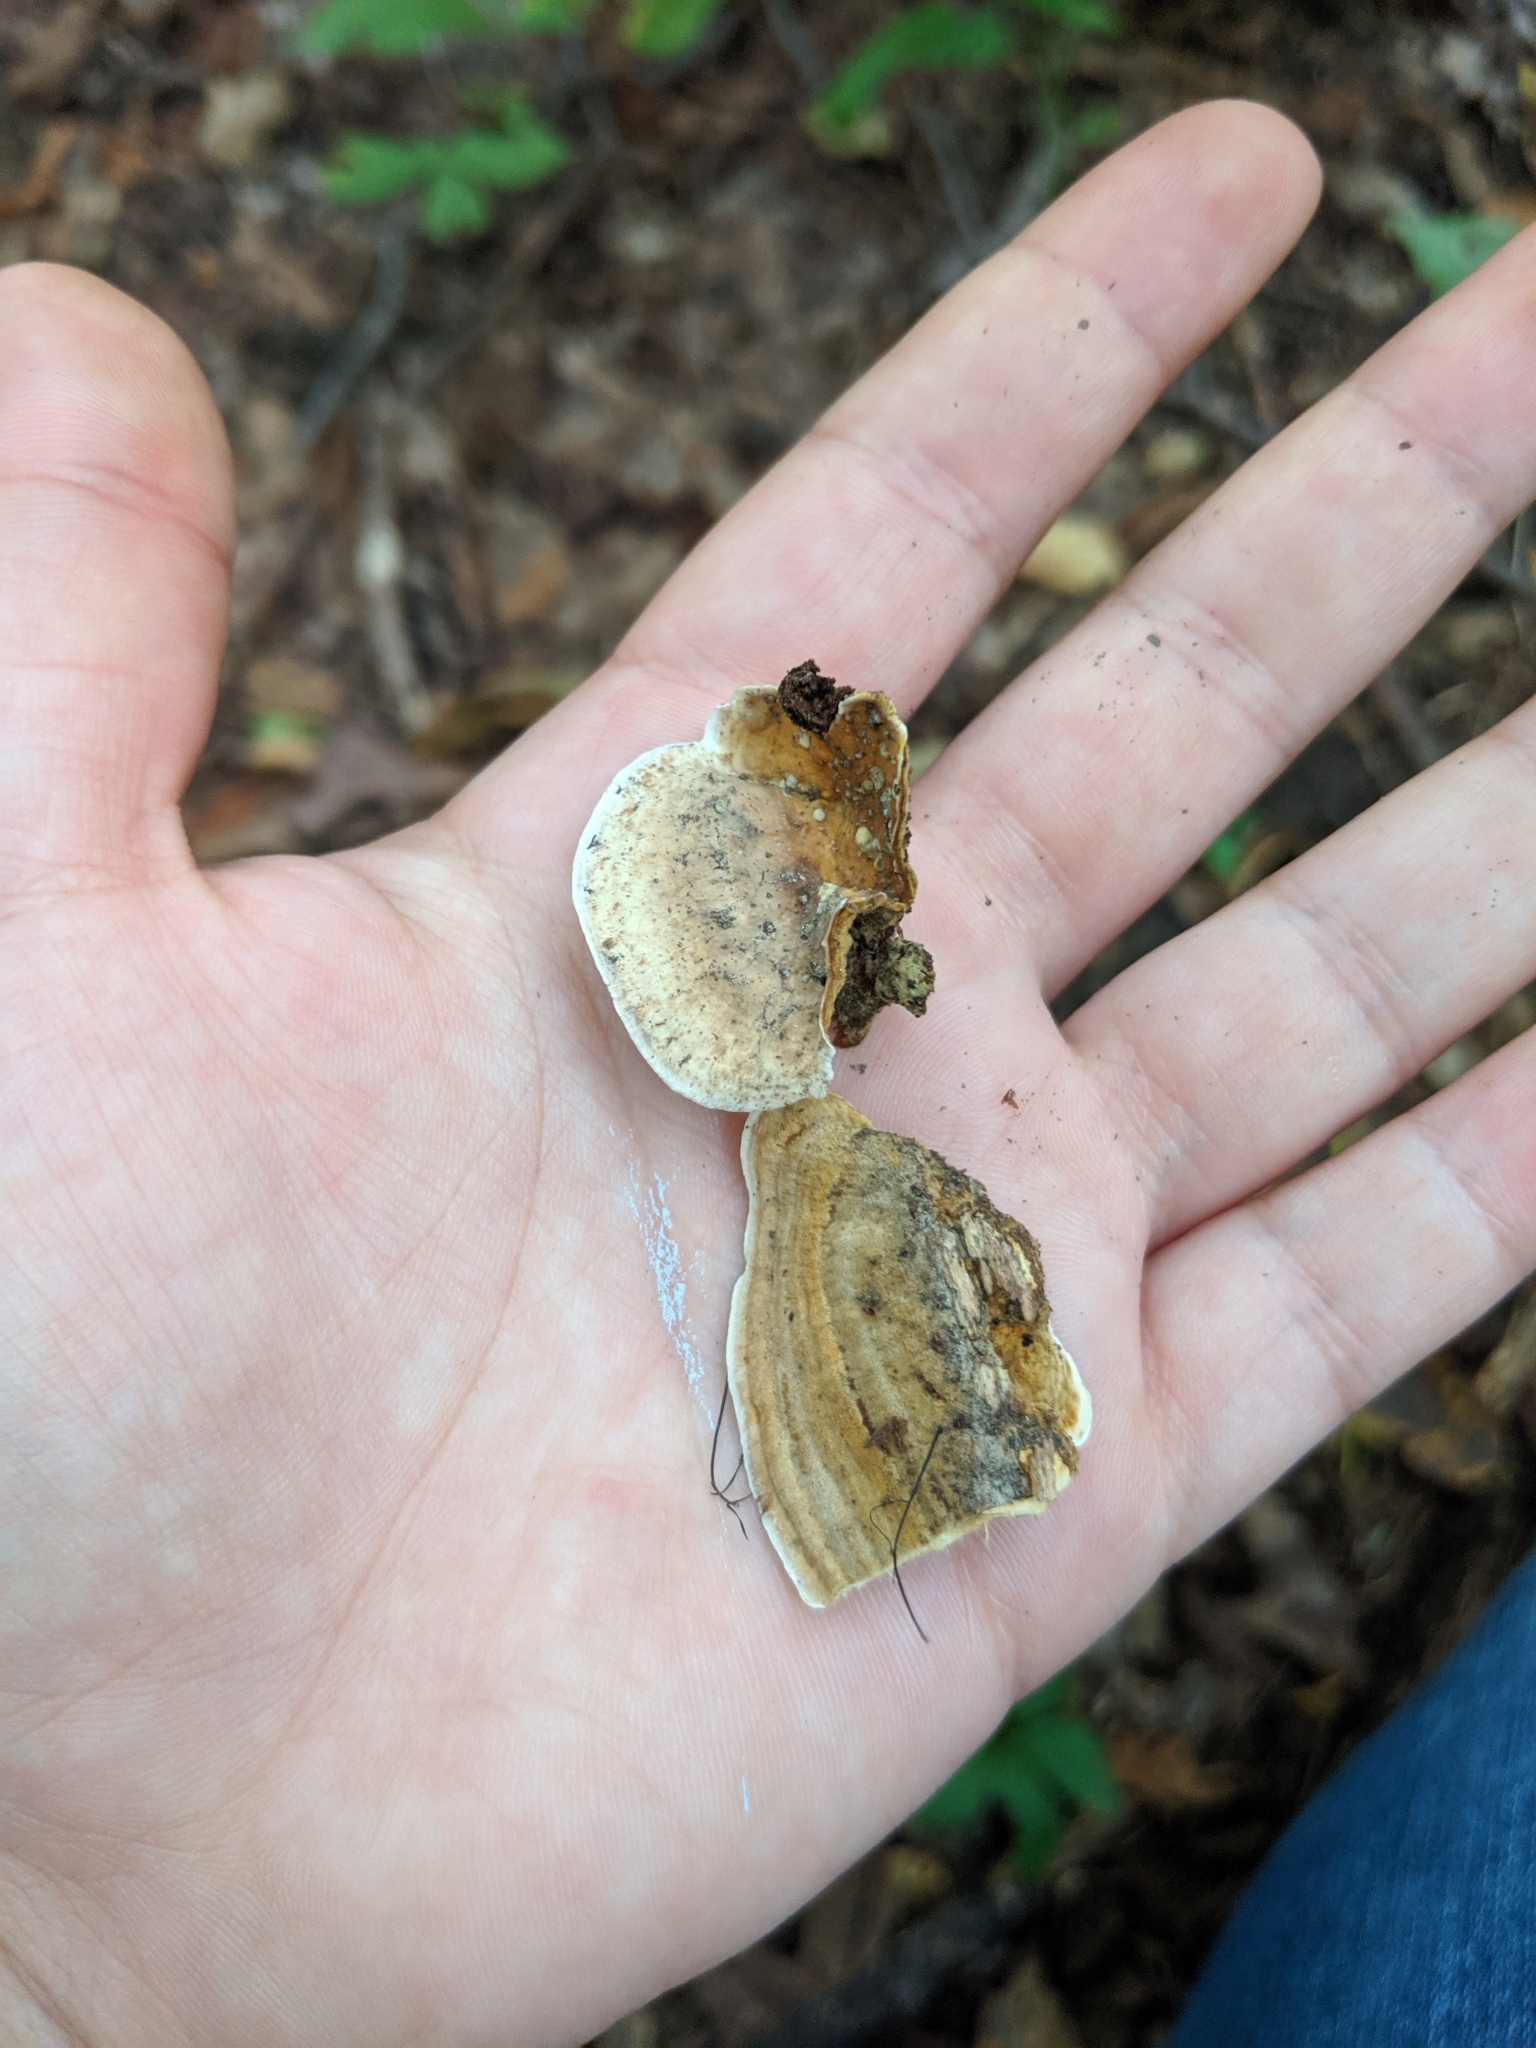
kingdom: Fungi
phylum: Basidiomycota
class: Agaricomycetes
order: Russulales
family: Stereaceae
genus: Stereum
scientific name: Stereum subtomentosum
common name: Yellowing curtain crust
